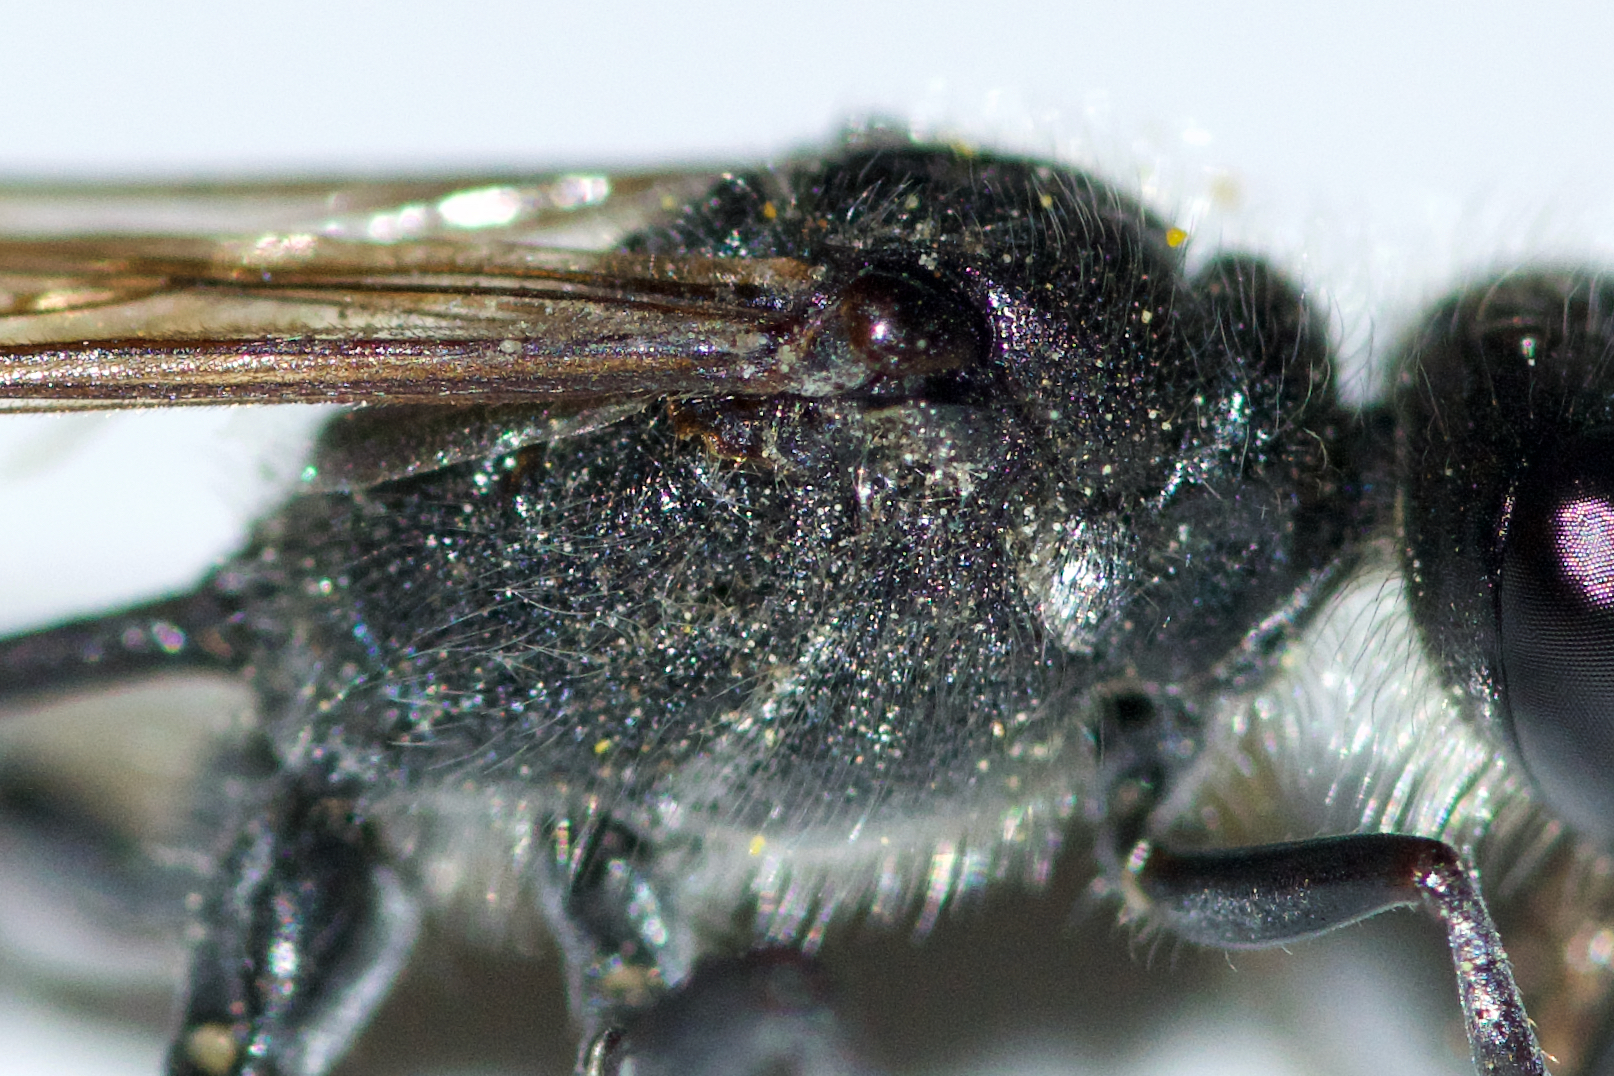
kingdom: Animalia
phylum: Arthropoda
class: Insecta
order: Hymenoptera
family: Sphecidae
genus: Ammophila
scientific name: Ammophila azteca
